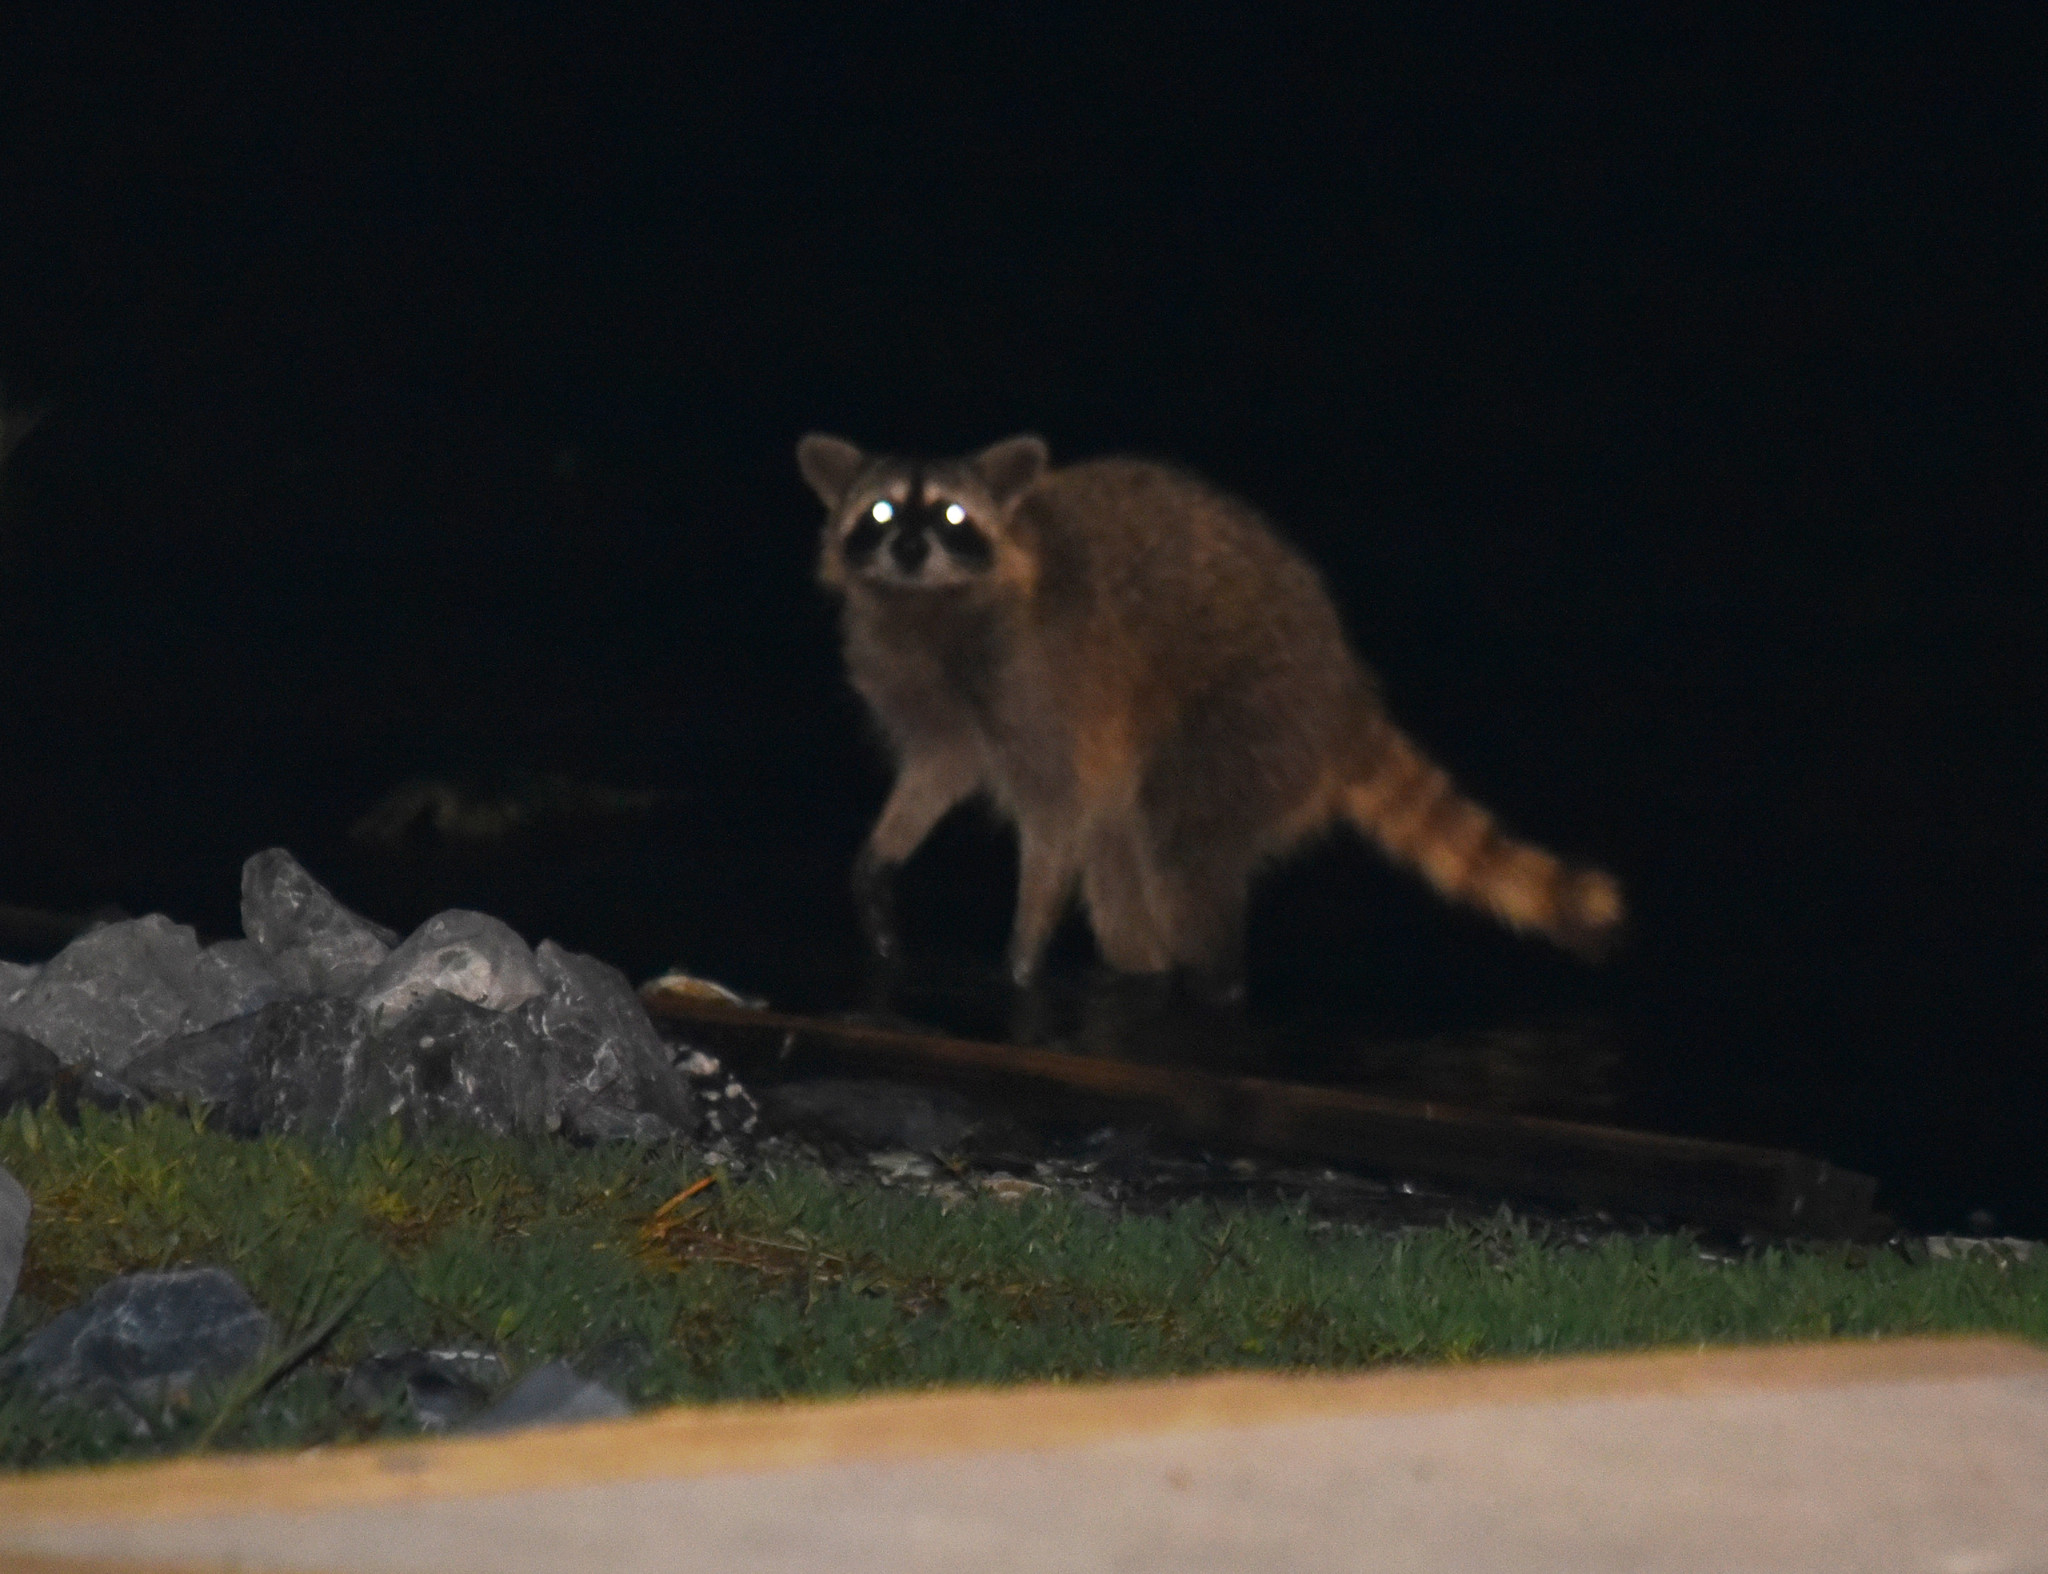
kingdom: Animalia
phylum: Chordata
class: Mammalia
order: Carnivora
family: Procyonidae
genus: Procyon
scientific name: Procyon lotor
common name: Raccoon
